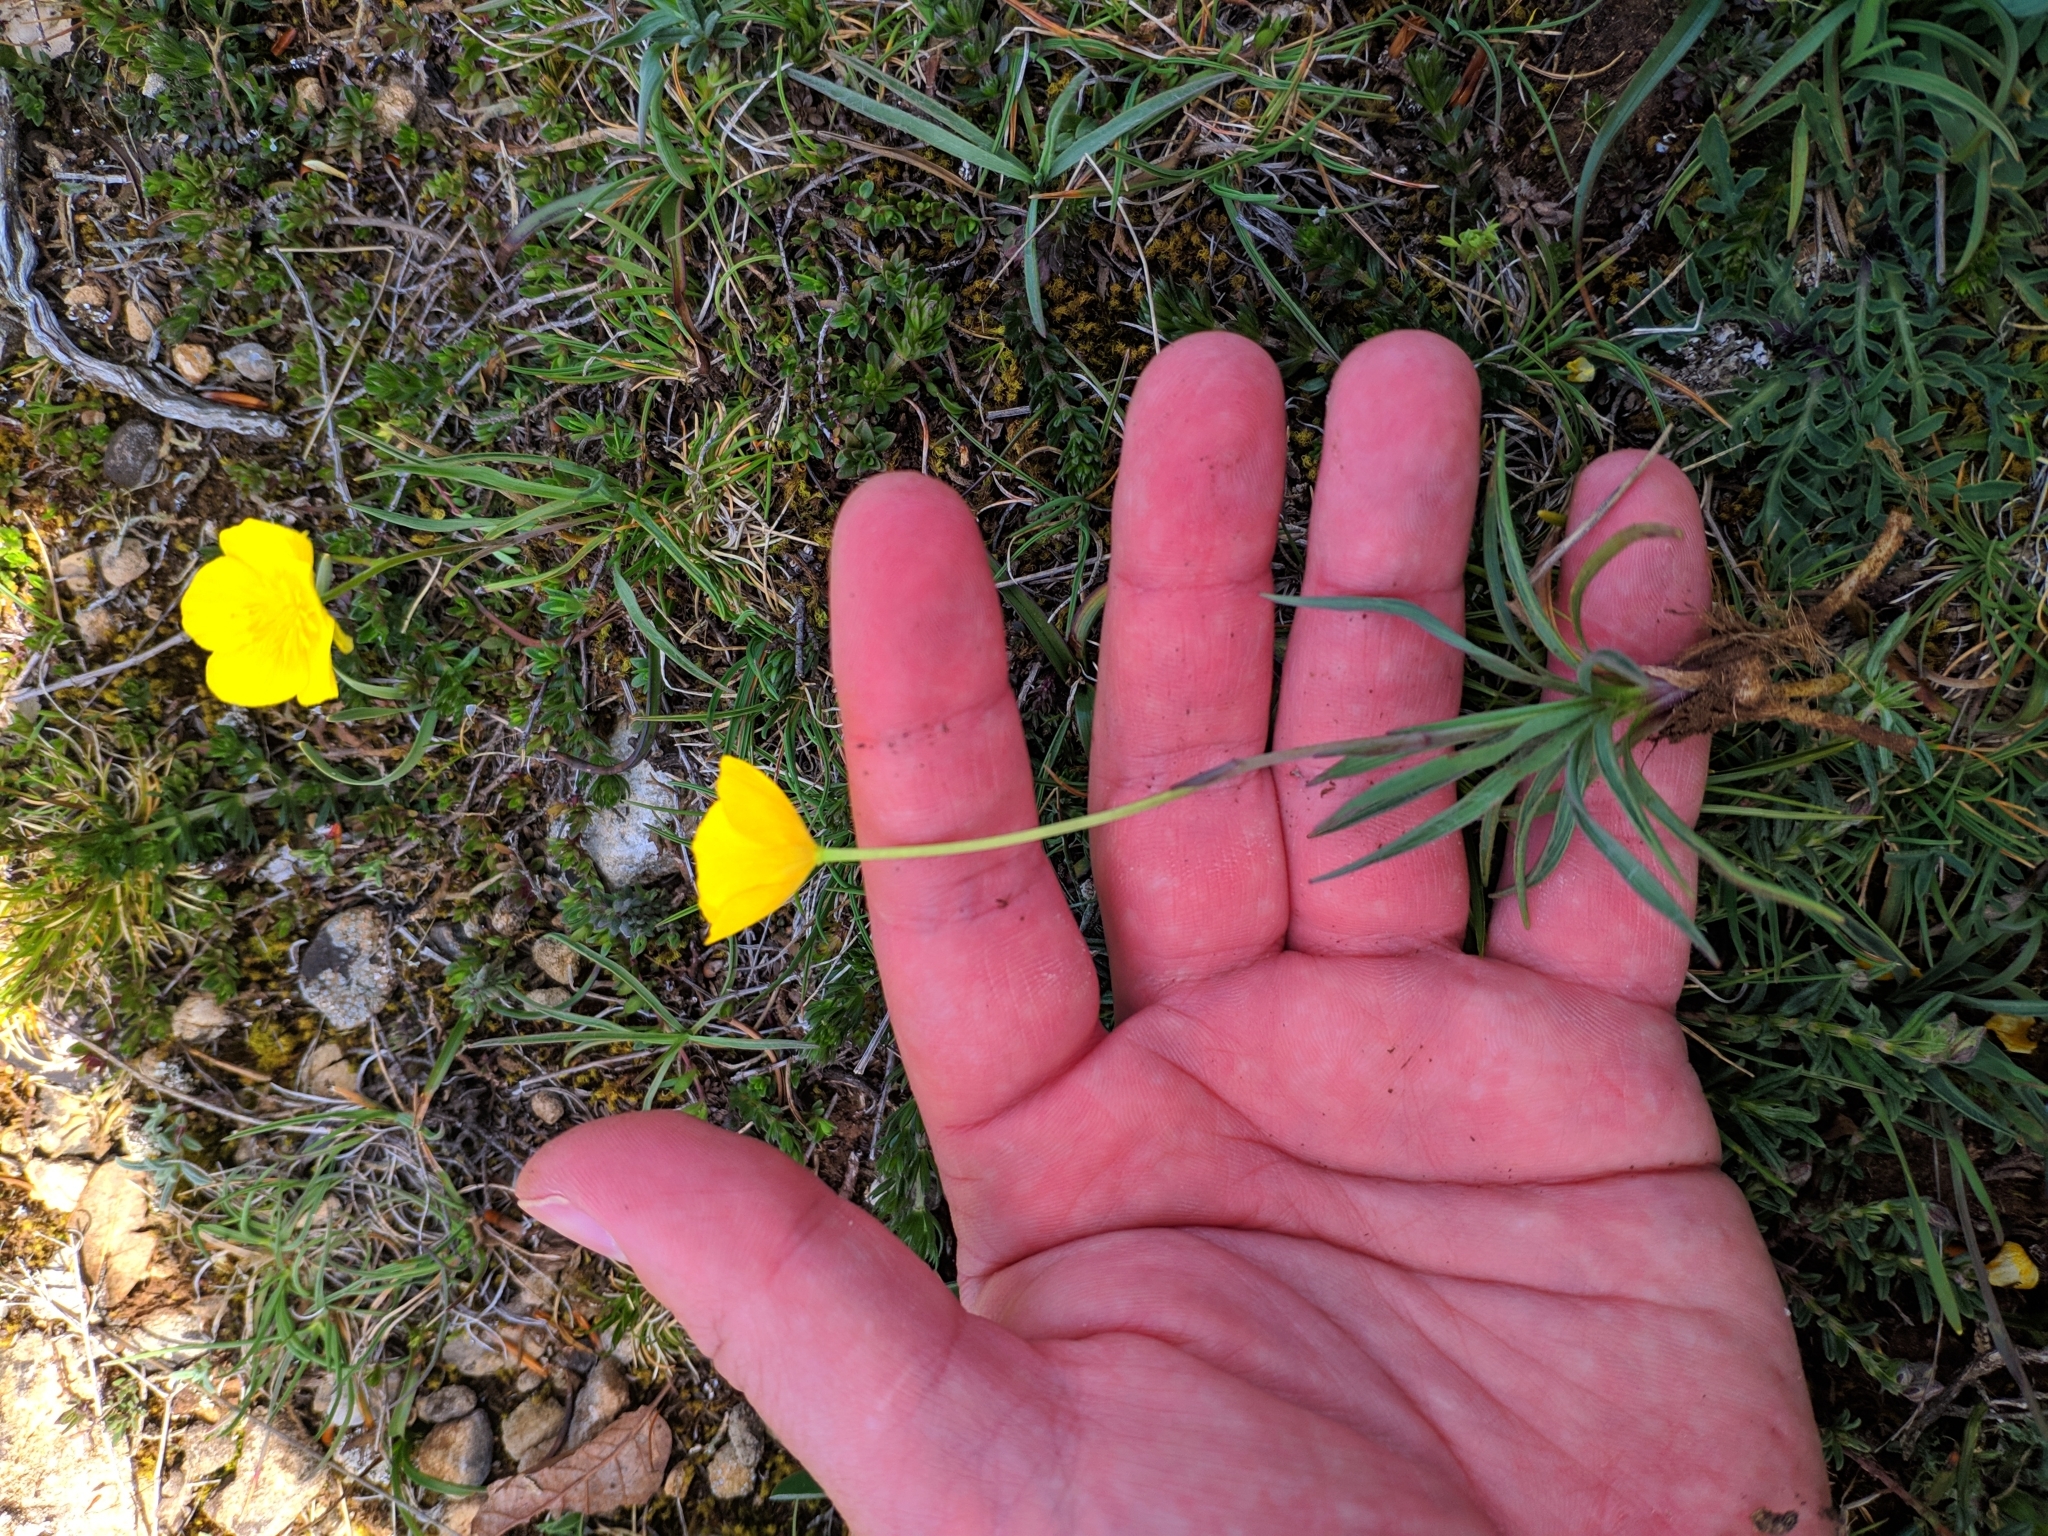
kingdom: Plantae
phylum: Tracheophyta
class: Magnoliopsida
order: Ranunculales
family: Ranunculaceae
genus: Ranunculus
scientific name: Ranunculus gramineus
